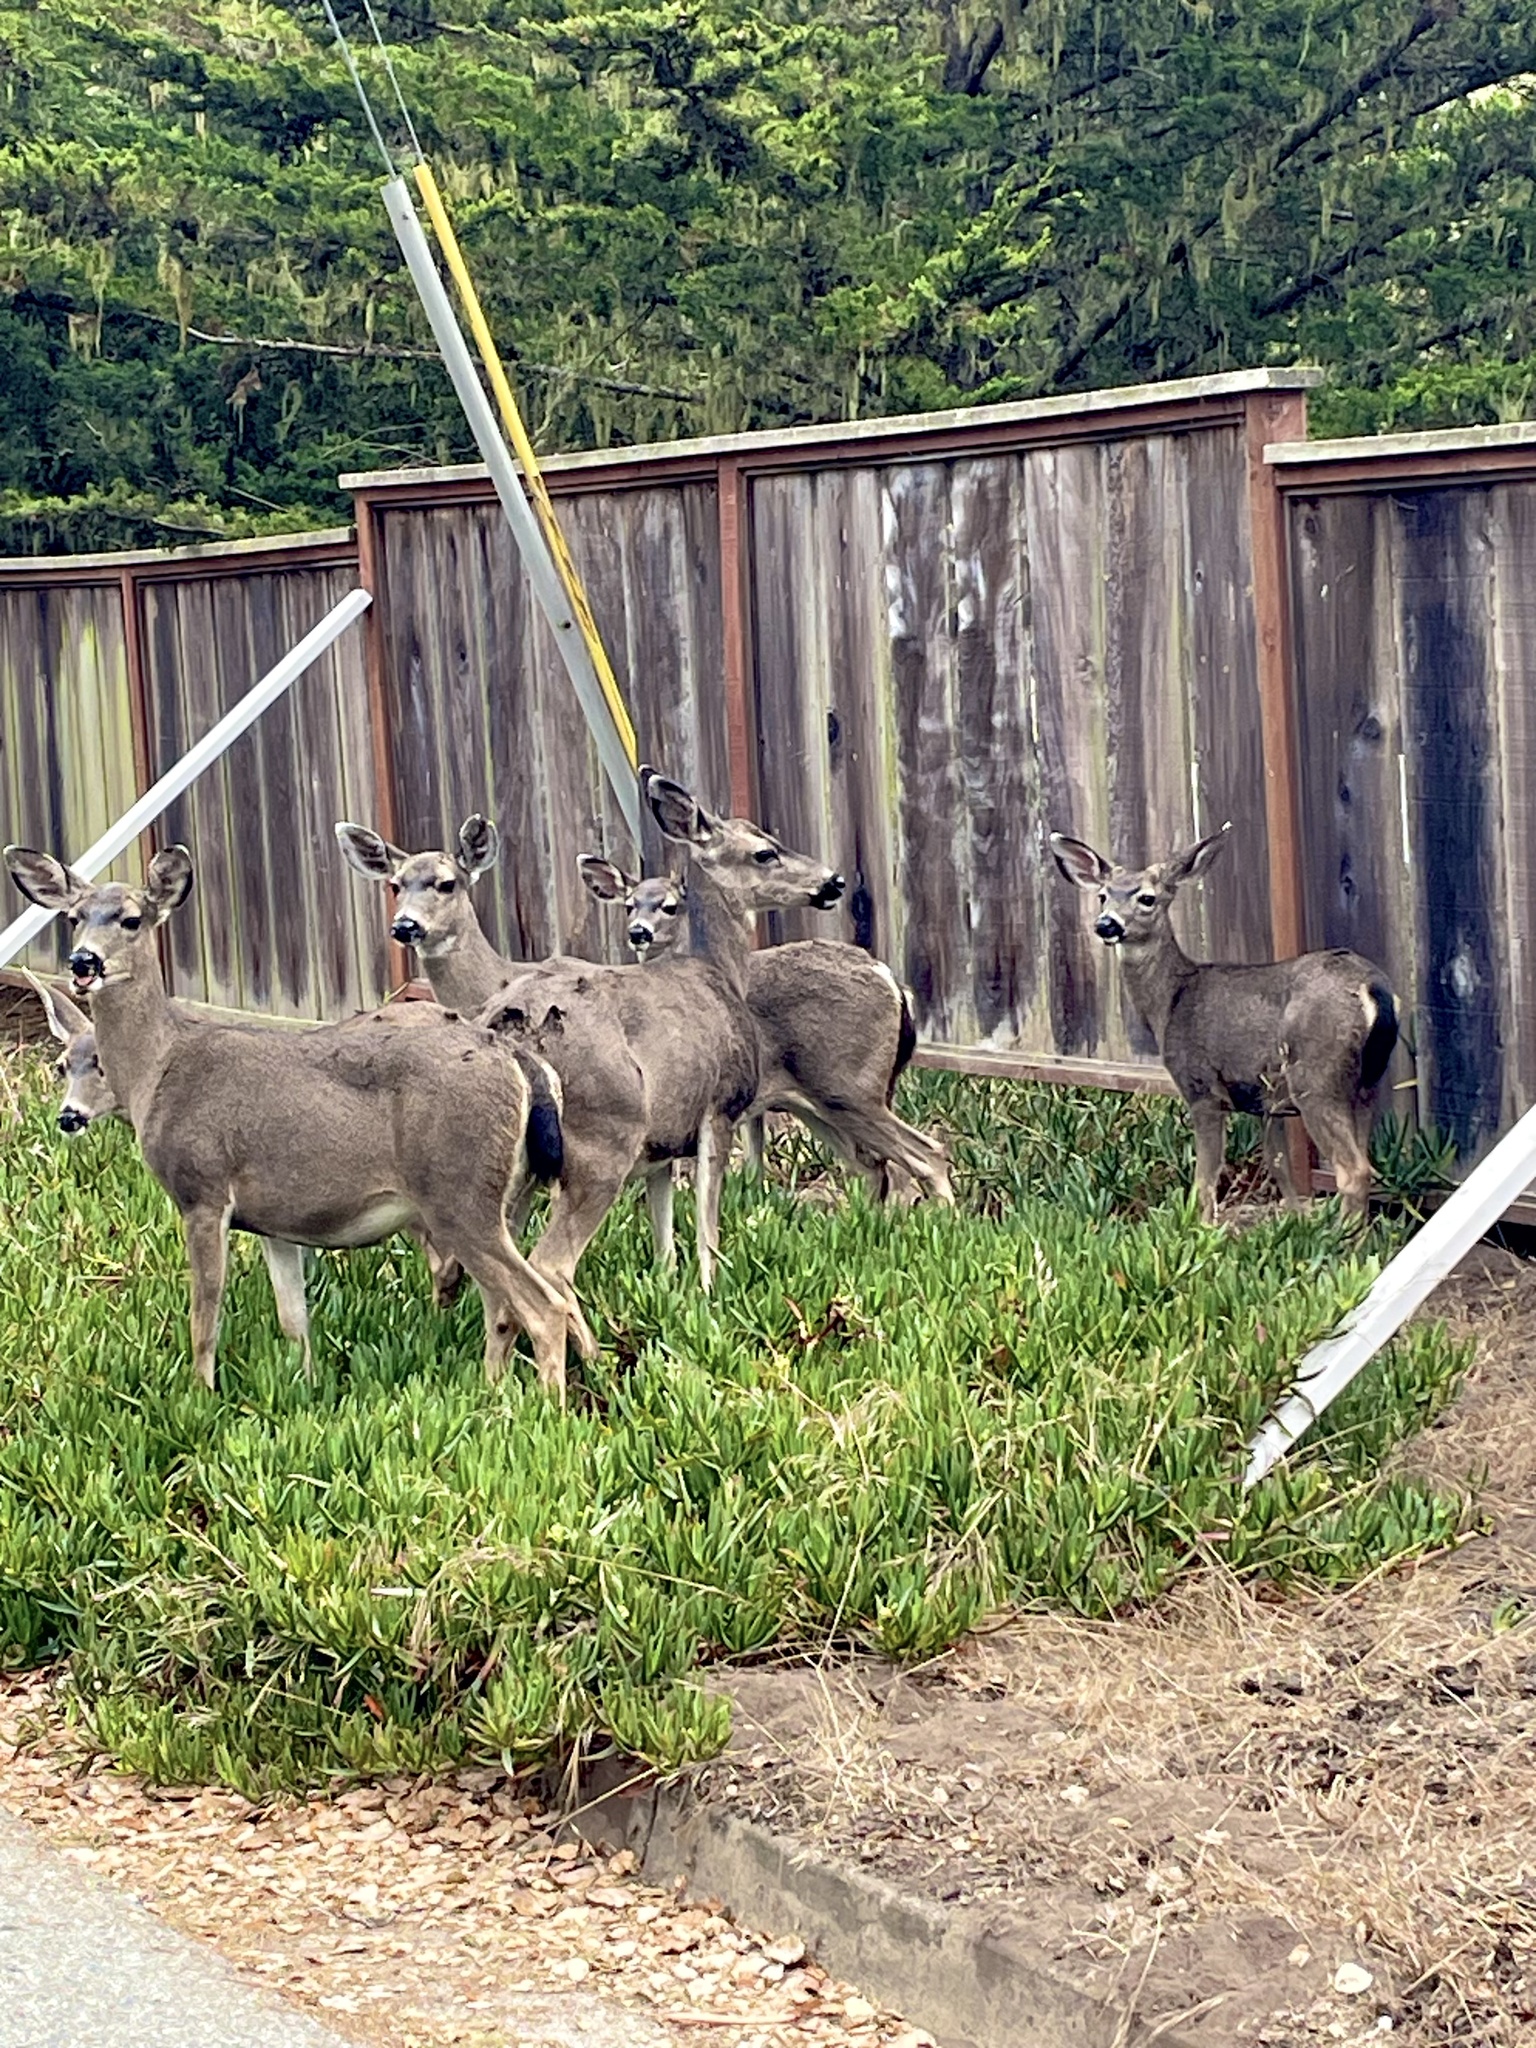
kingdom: Animalia
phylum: Chordata
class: Mammalia
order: Artiodactyla
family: Cervidae
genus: Odocoileus
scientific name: Odocoileus hemionus
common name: Mule deer
